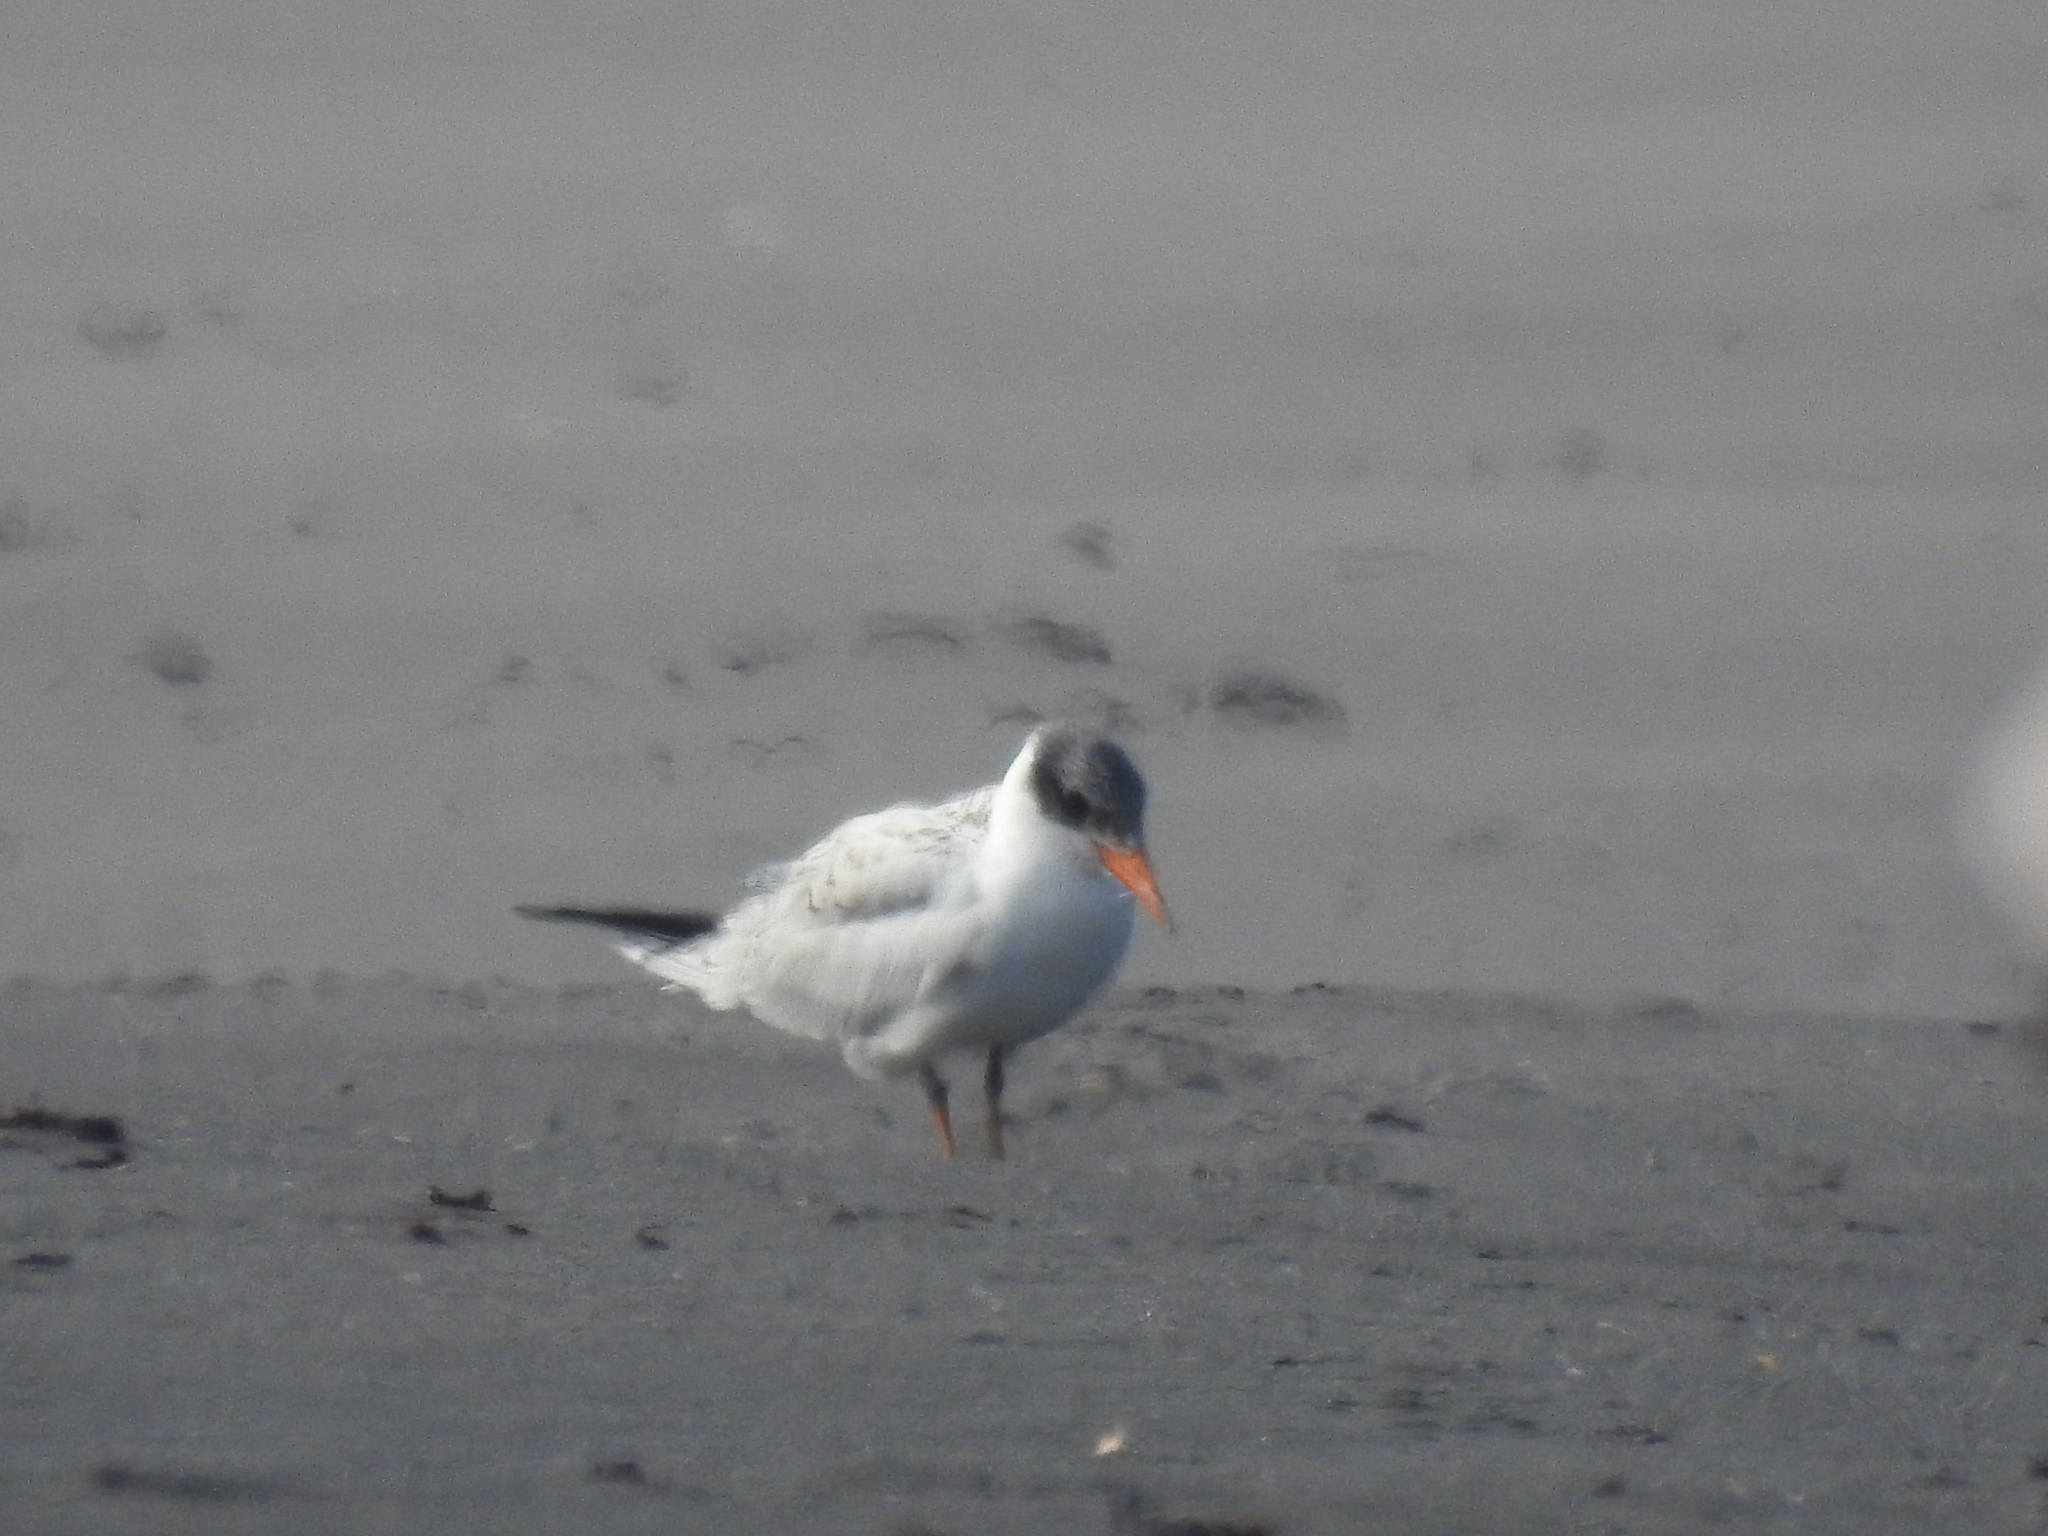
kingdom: Animalia
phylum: Chordata
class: Aves
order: Charadriiformes
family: Laridae
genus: Hydroprogne
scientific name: Hydroprogne caspia
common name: Caspian tern
